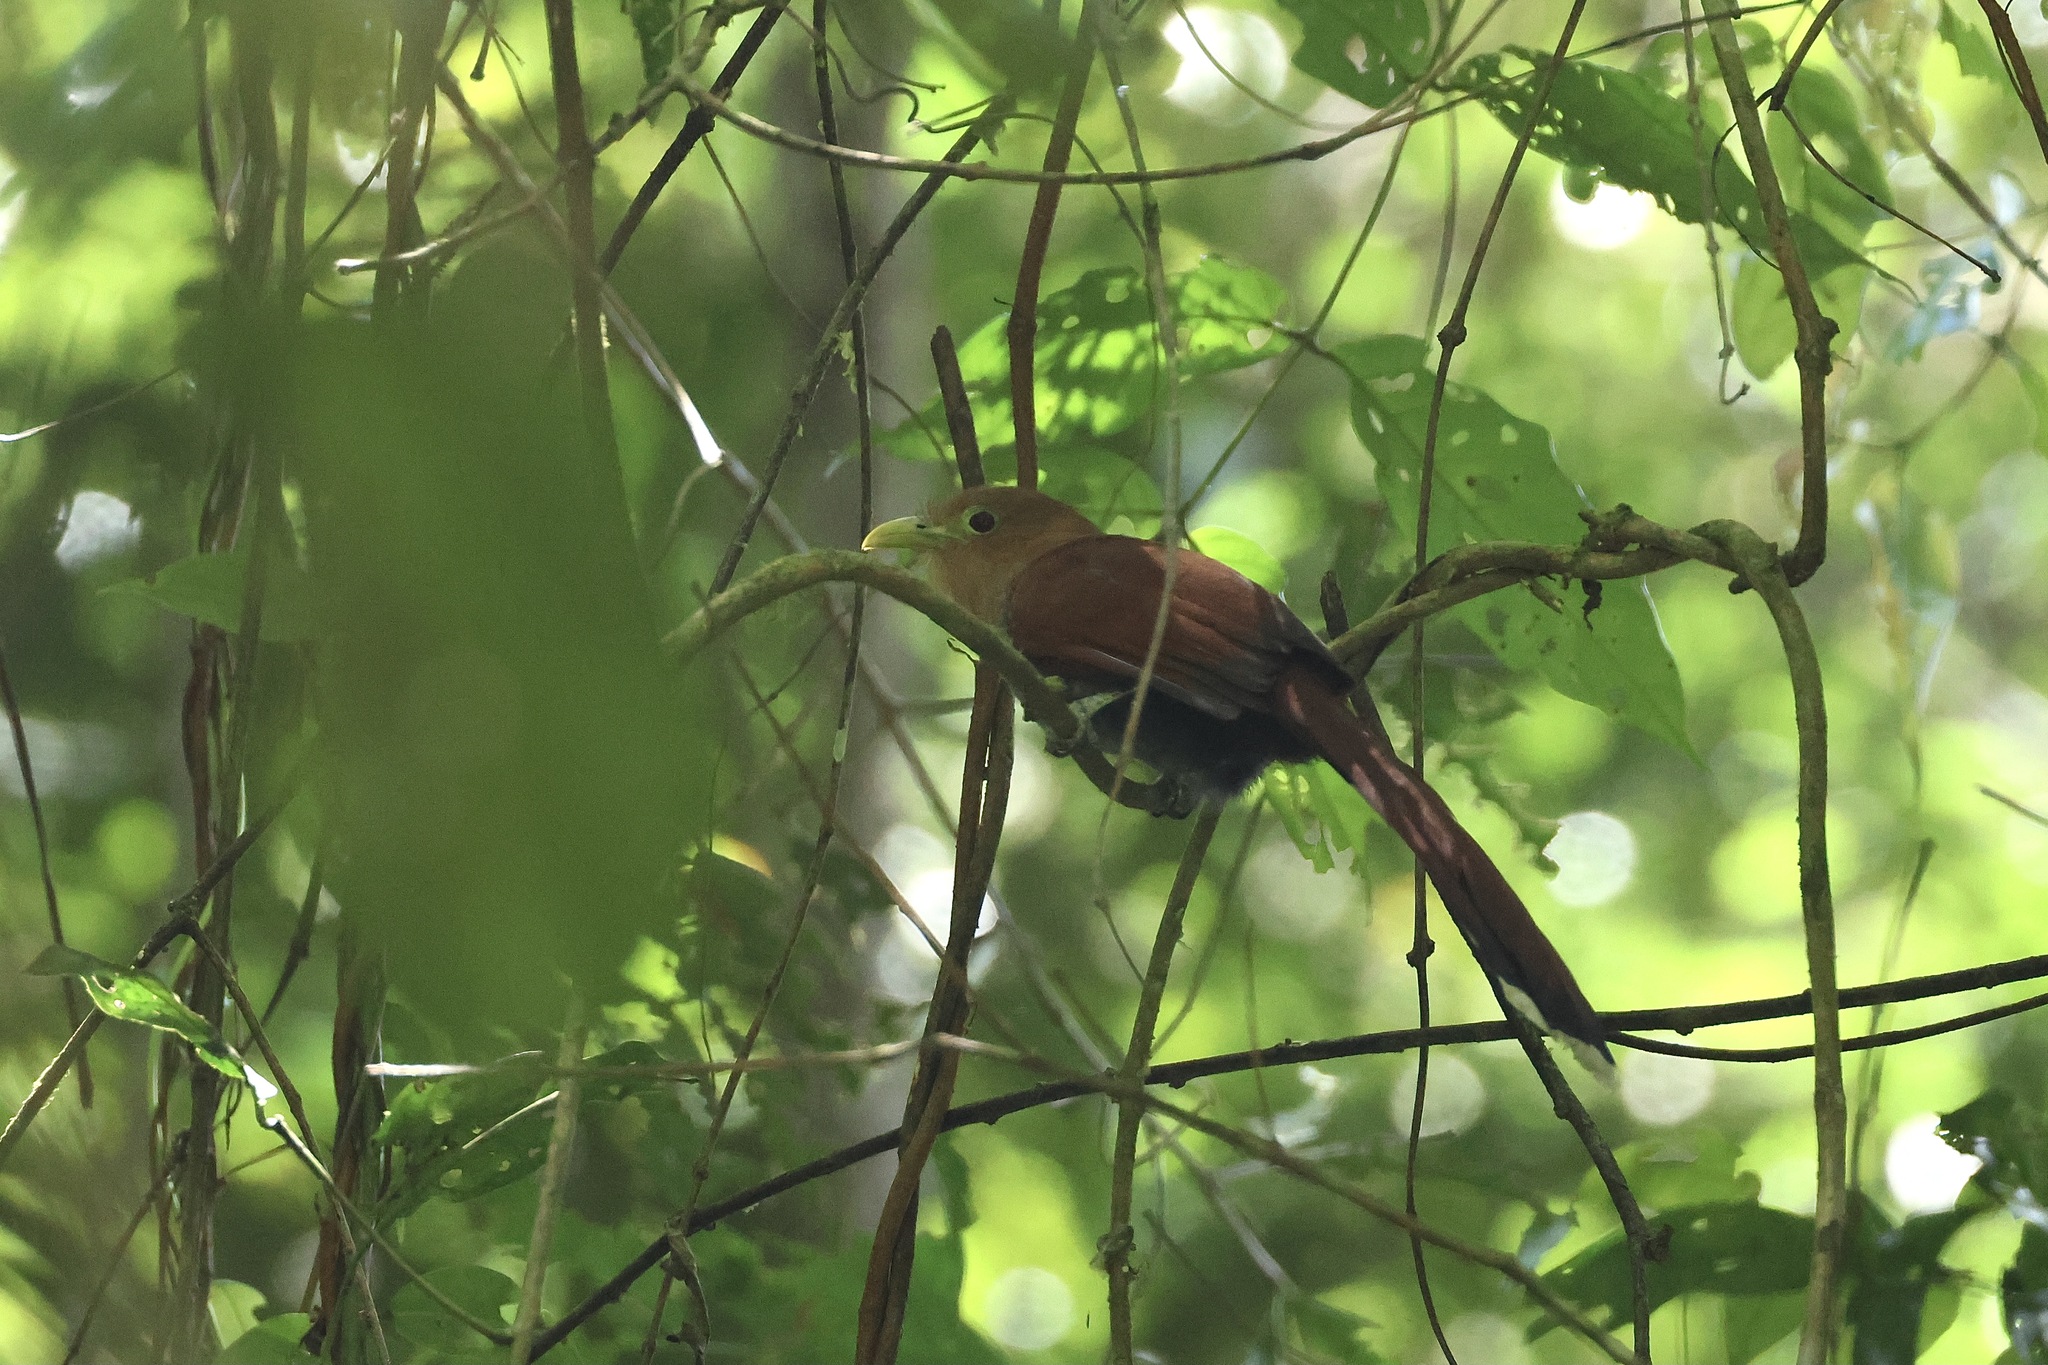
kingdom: Animalia
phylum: Chordata
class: Aves
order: Cuculiformes
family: Cuculidae
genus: Piaya
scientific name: Piaya cayana
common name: Squirrel cuckoo
